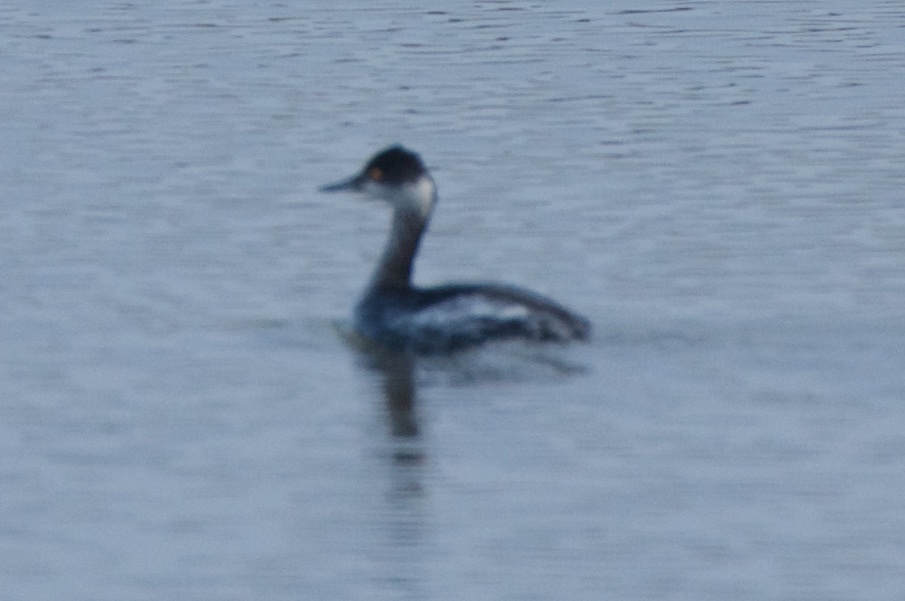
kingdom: Animalia
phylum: Chordata
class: Aves
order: Podicipediformes
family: Podicipedidae
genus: Podiceps
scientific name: Podiceps nigricollis
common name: Black-necked grebe
